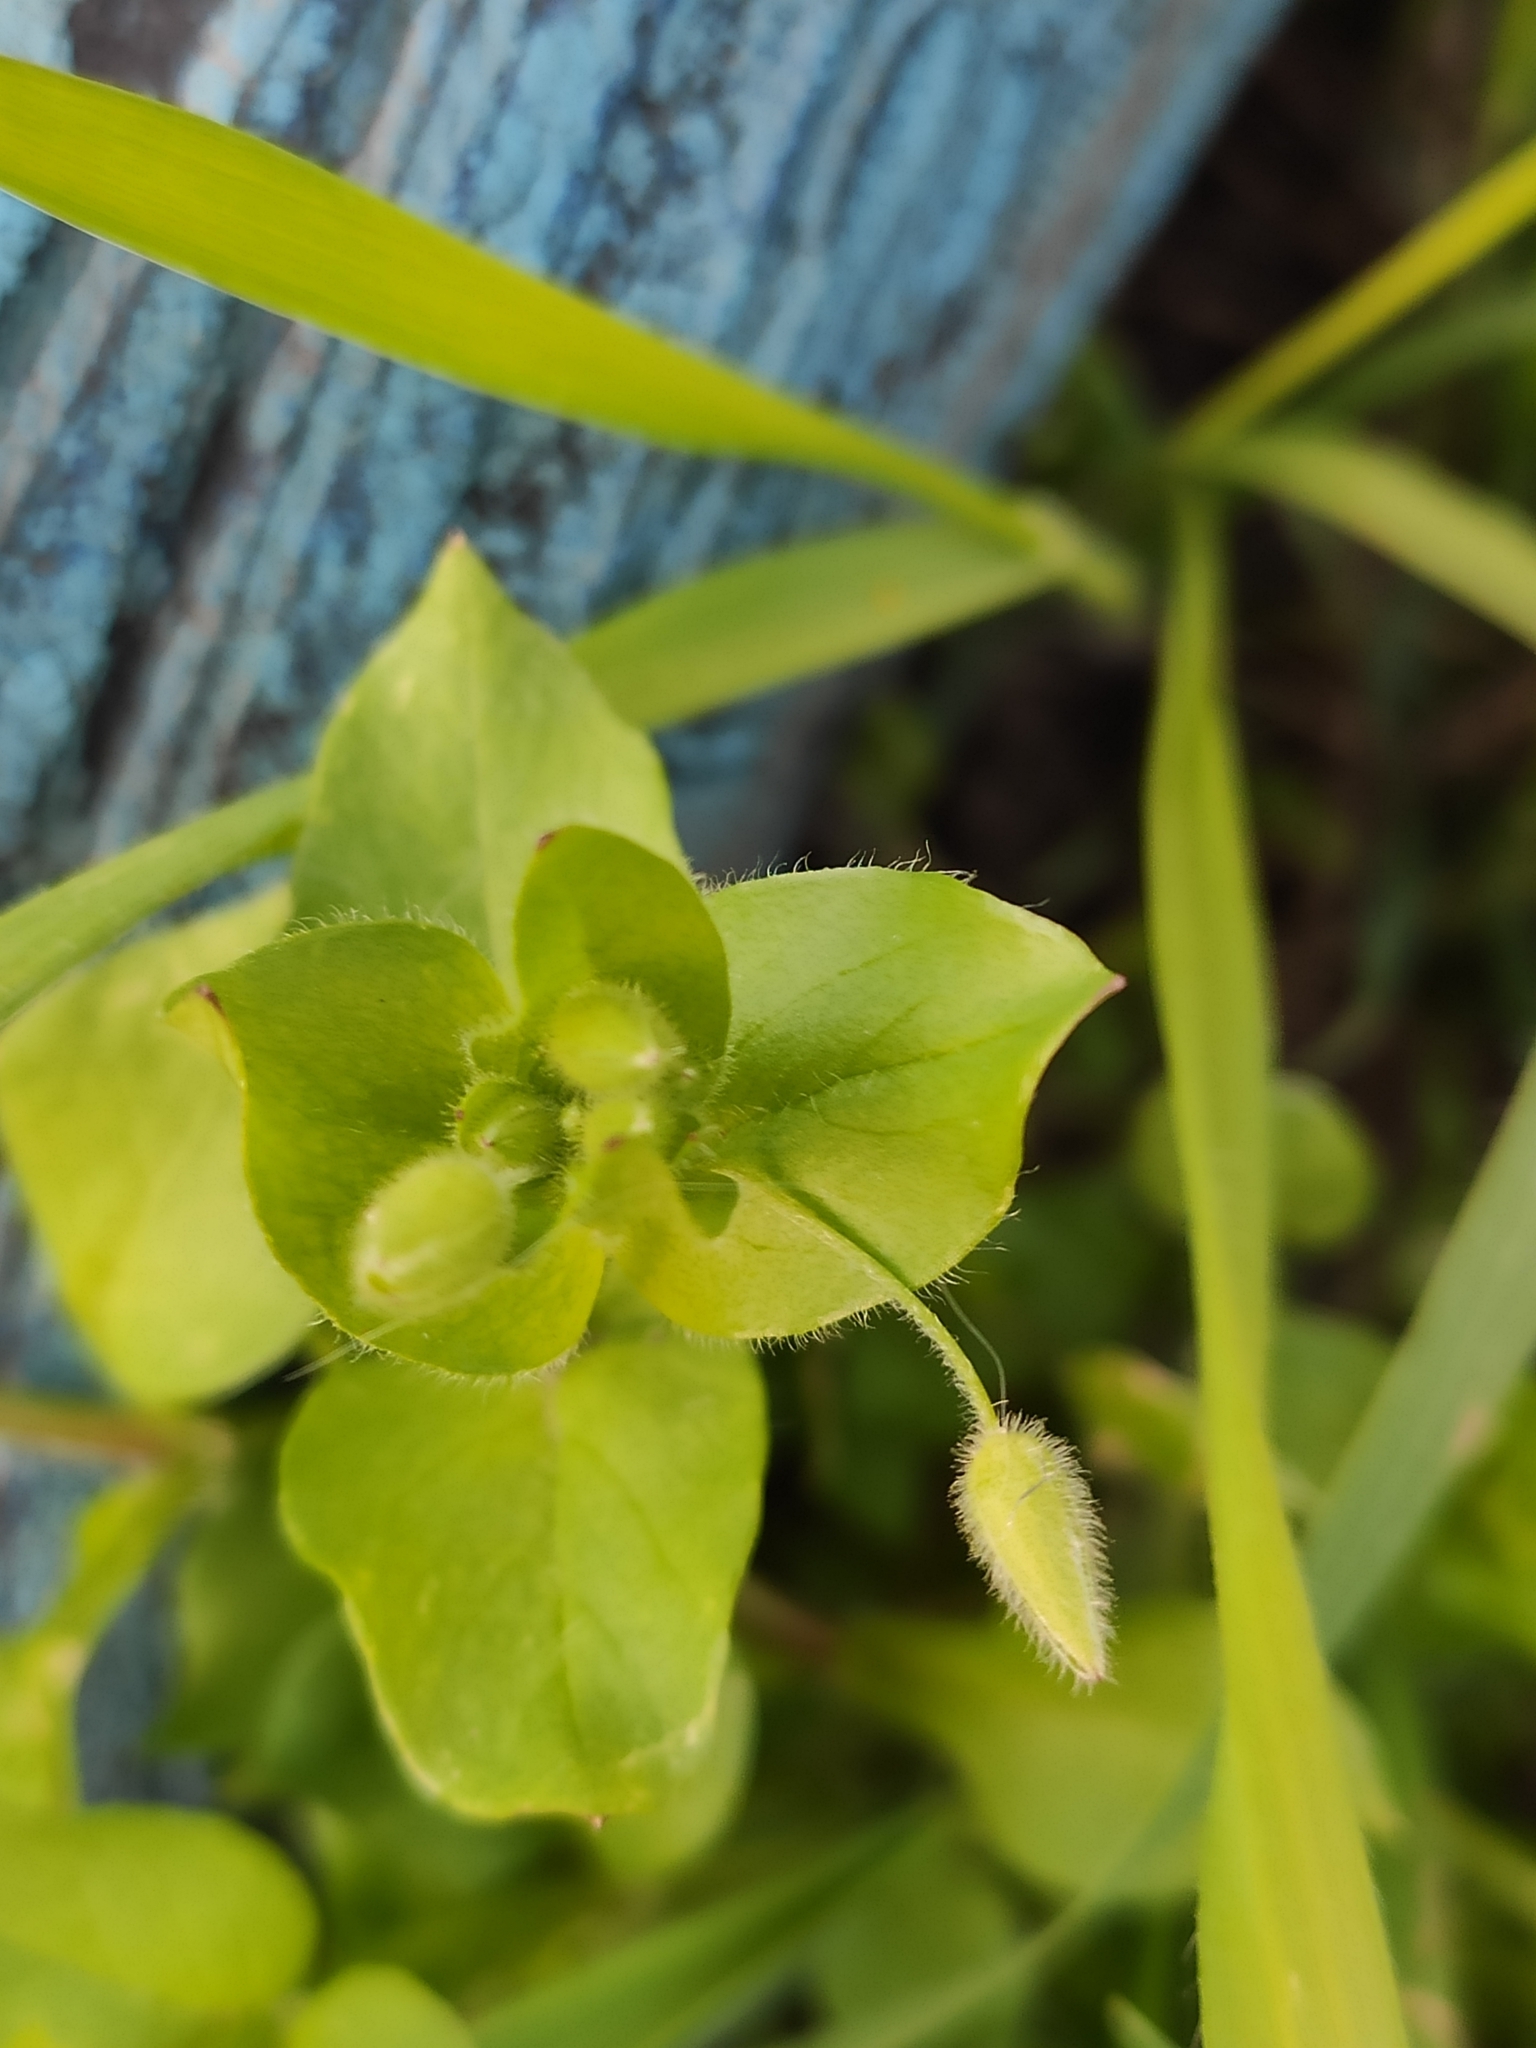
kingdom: Plantae
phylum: Tracheophyta
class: Magnoliopsida
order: Caryophyllales
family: Caryophyllaceae
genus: Stellaria
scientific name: Stellaria media
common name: Common chickweed
